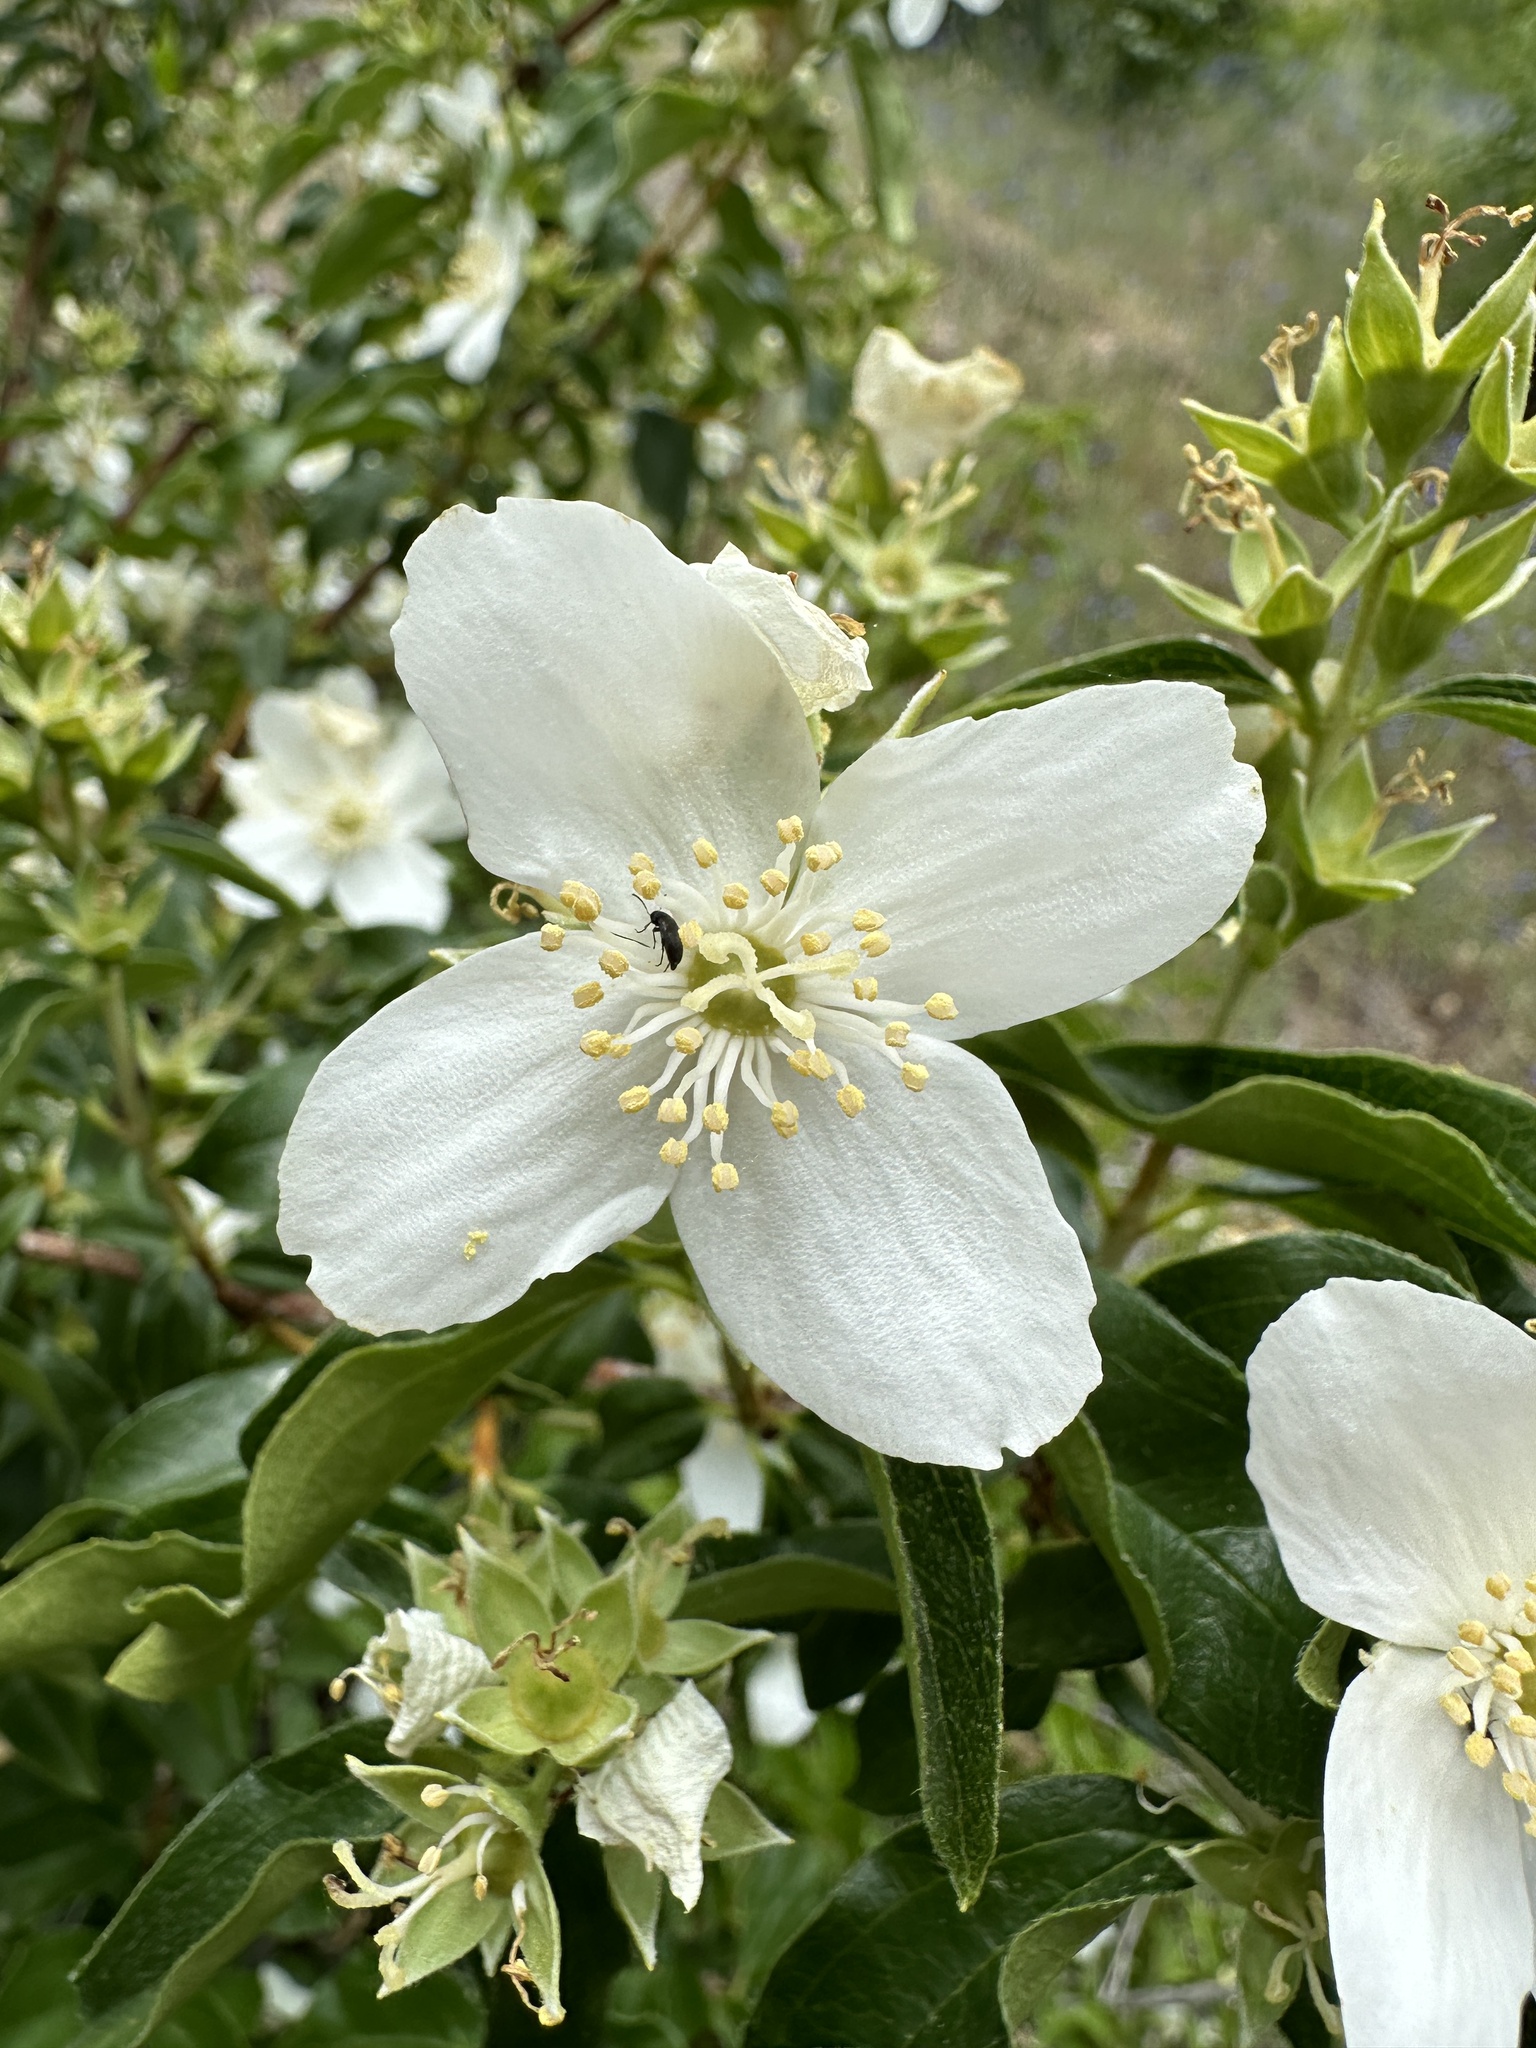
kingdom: Plantae
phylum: Tracheophyta
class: Magnoliopsida
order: Cornales
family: Hydrangeaceae
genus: Philadelphus
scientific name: Philadelphus lewisii
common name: Lewis's mock orange
